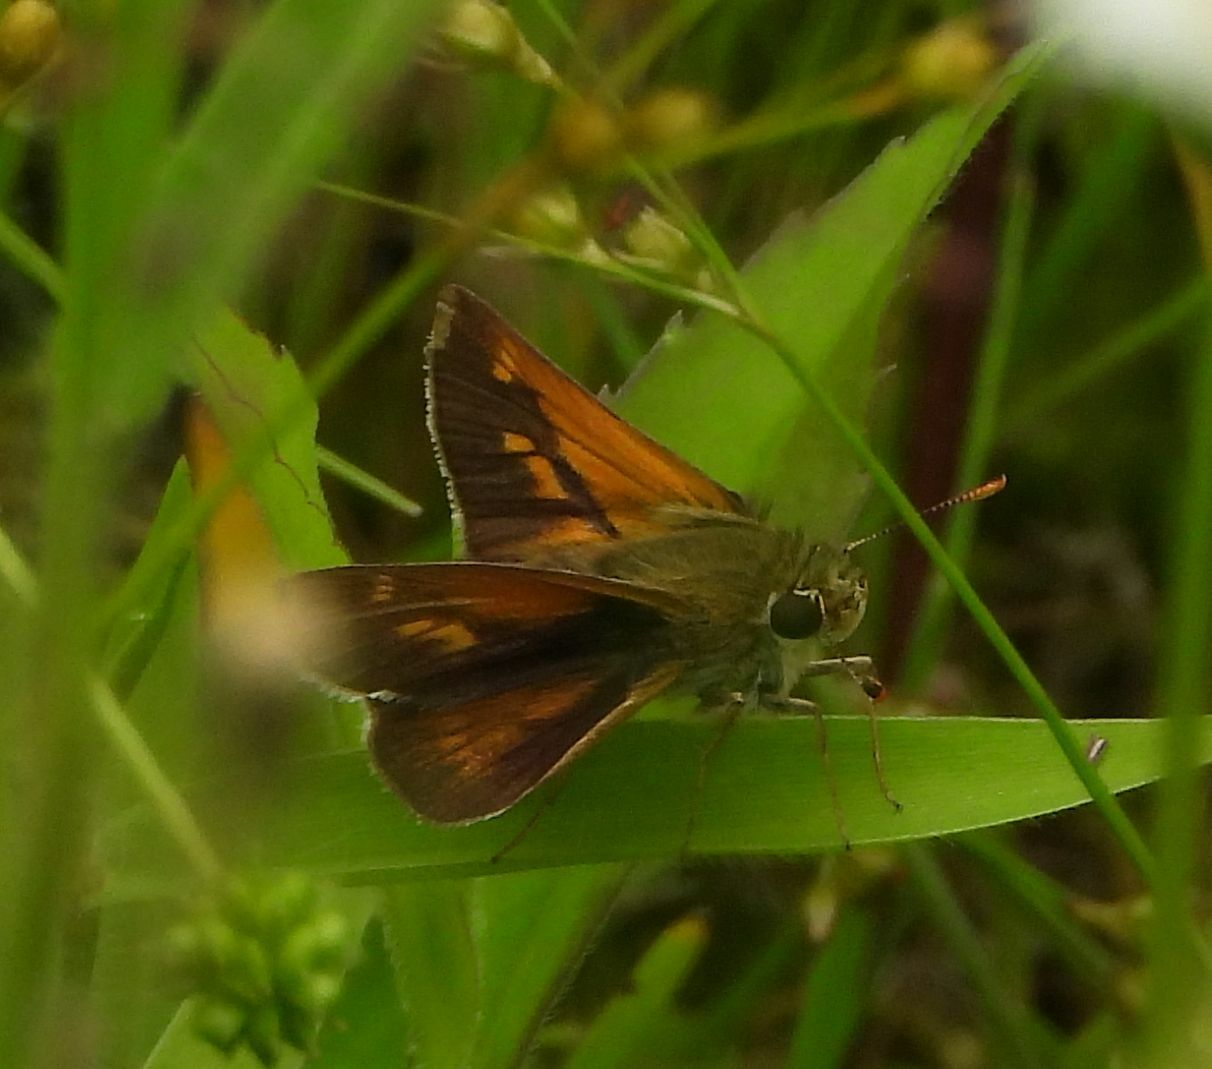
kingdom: Animalia
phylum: Arthropoda
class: Insecta
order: Lepidoptera
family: Hesperiidae
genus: Polites
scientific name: Polites origenes
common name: Crossline skipper
